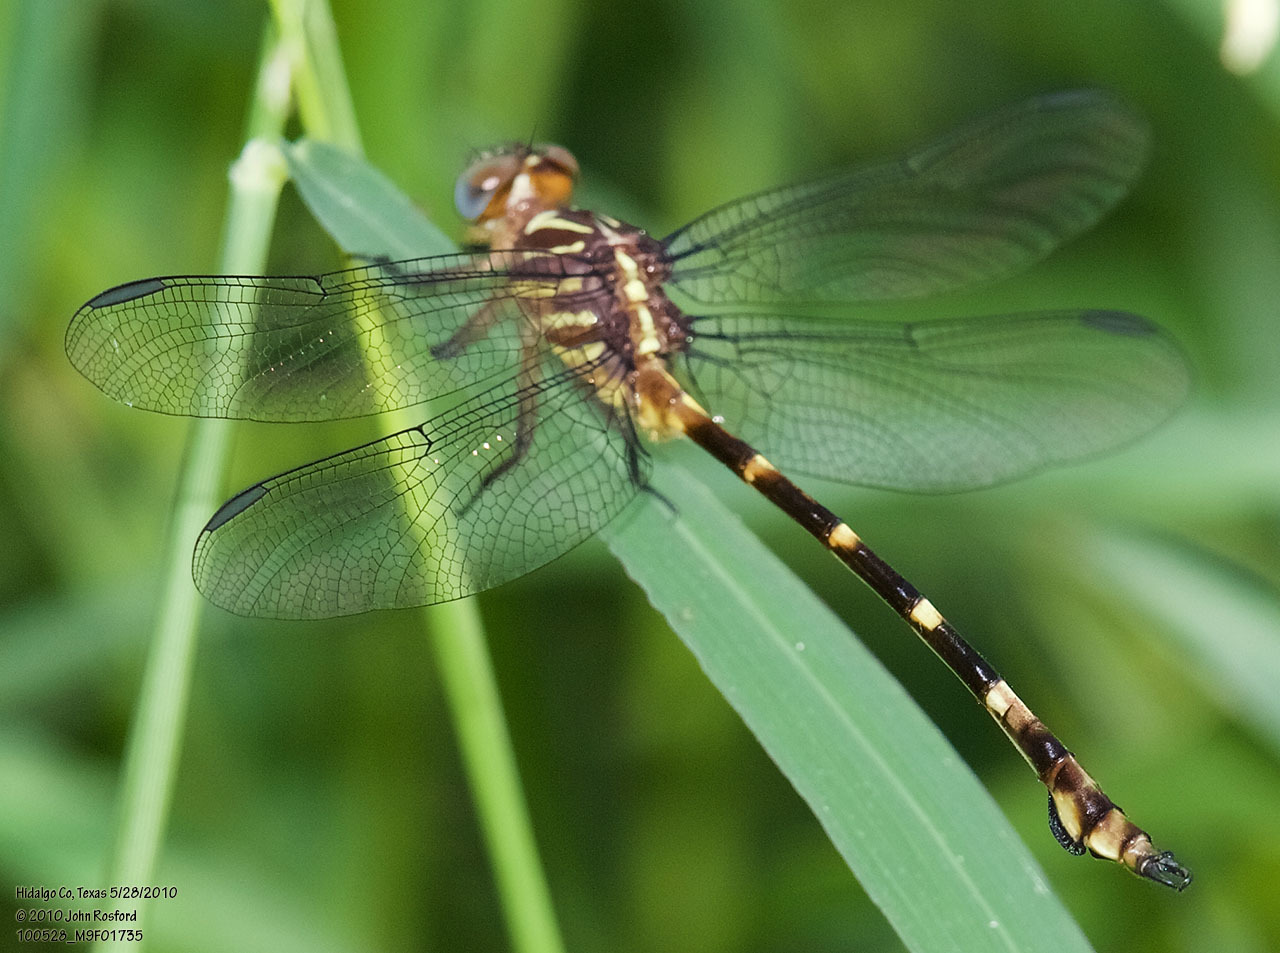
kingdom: Animalia
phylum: Arthropoda
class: Insecta
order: Odonata
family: Gomphidae
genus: Phyllocycla
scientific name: Phyllocycla breviphylla
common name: Ringed forceptail
